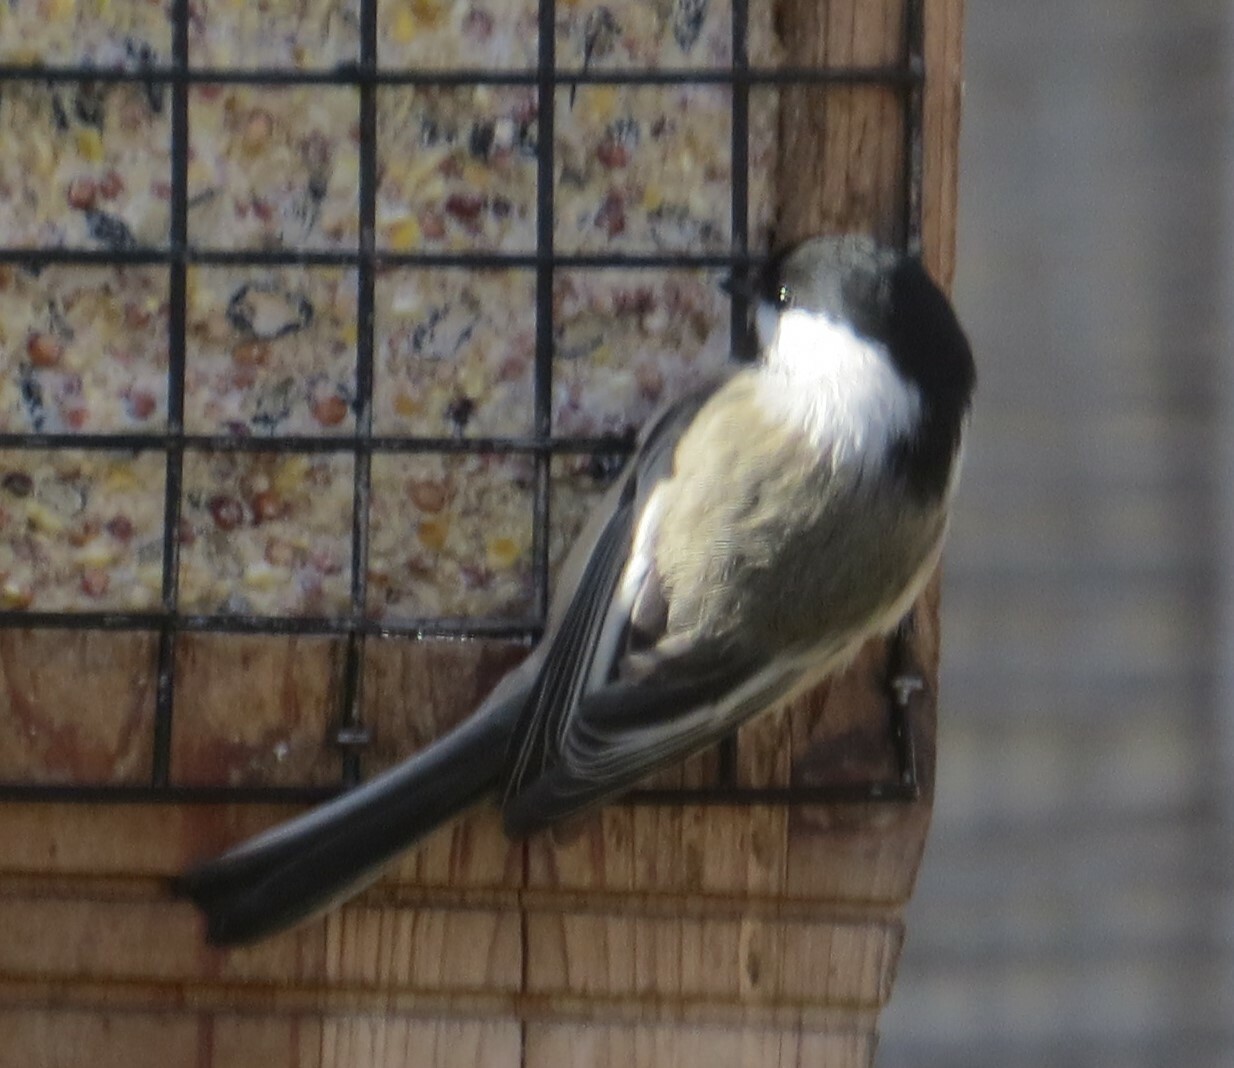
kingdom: Animalia
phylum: Chordata
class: Aves
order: Passeriformes
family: Paridae
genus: Poecile
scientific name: Poecile atricapillus
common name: Black-capped chickadee
